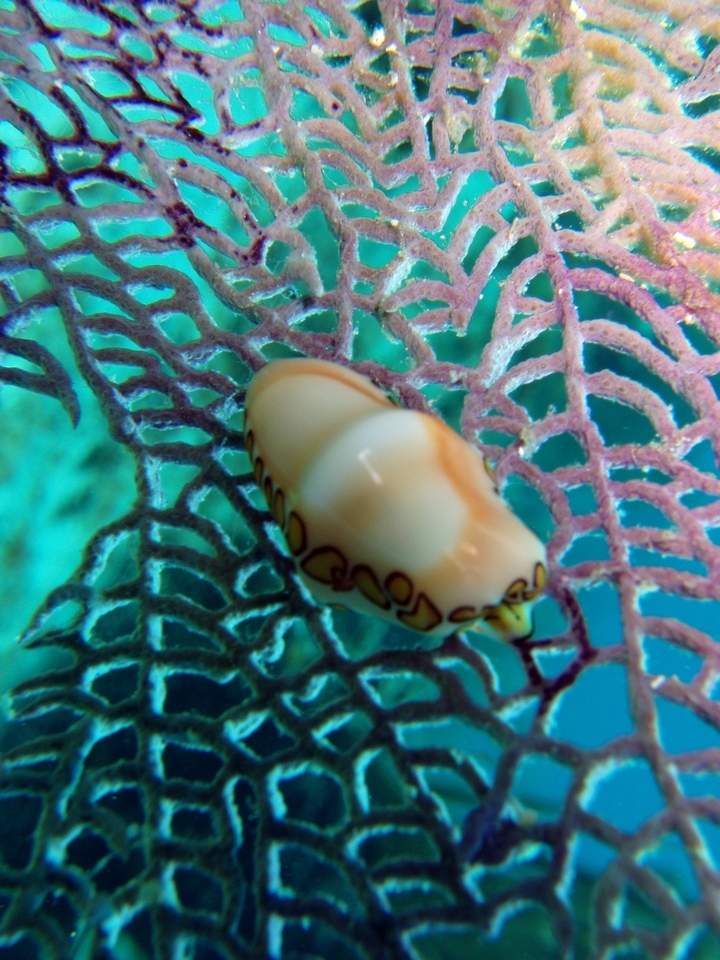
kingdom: Animalia
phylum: Mollusca
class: Gastropoda
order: Littorinimorpha
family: Ovulidae
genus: Cyphoma
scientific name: Cyphoma gibbosum
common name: Flamingo tongue
